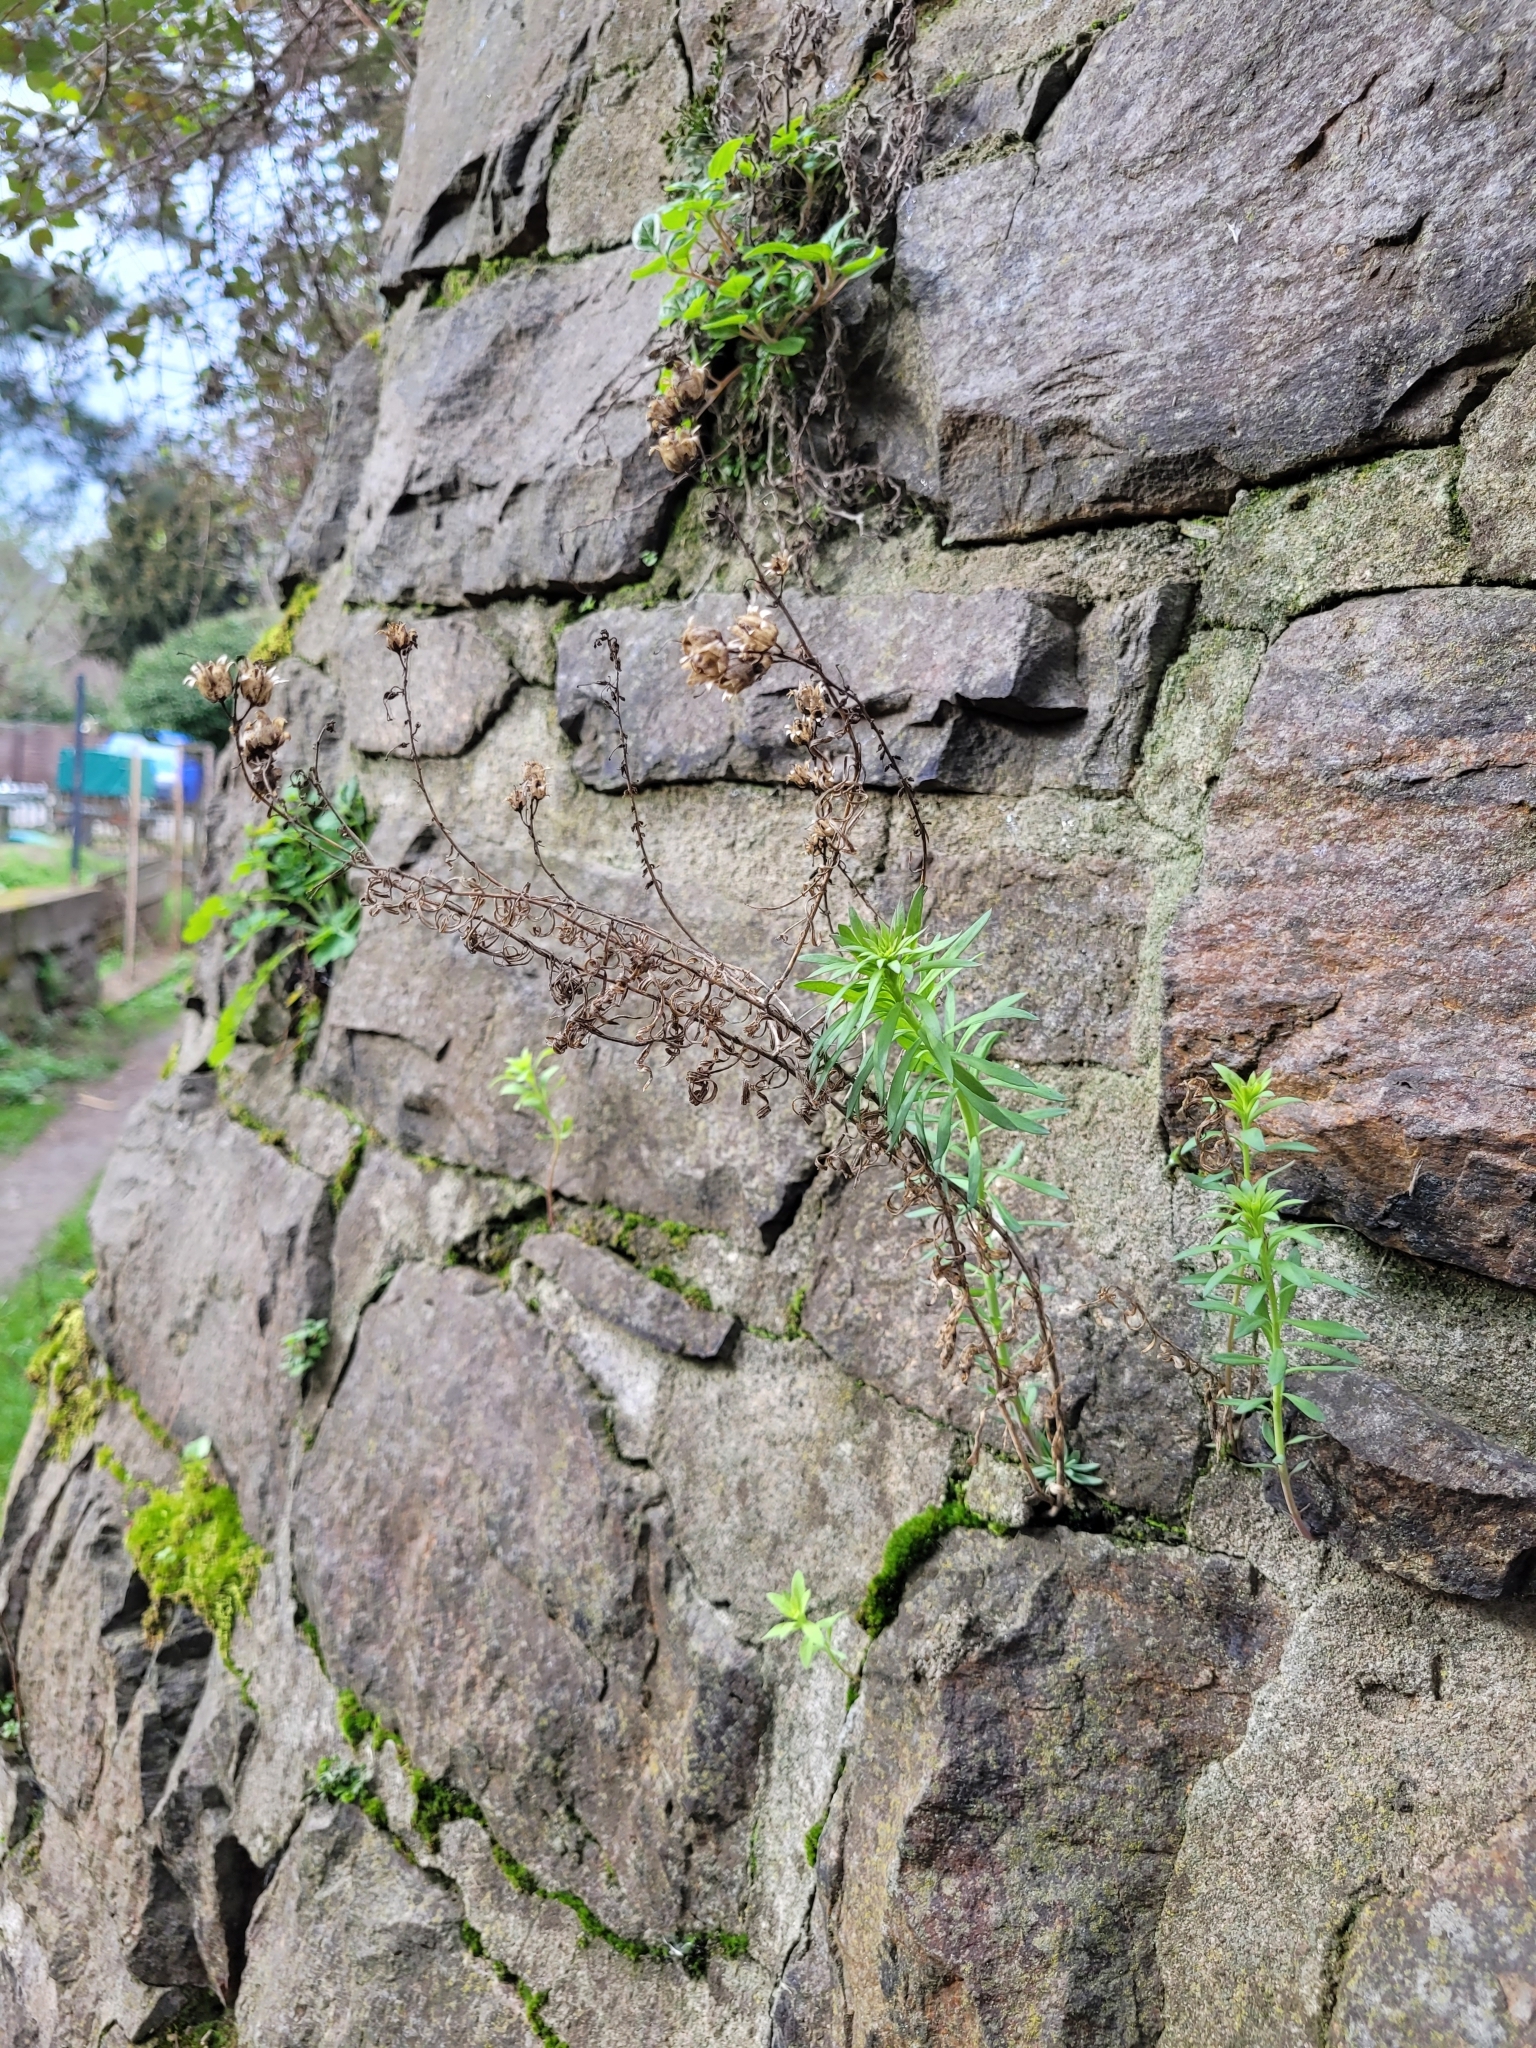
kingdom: Plantae
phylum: Tracheophyta
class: Magnoliopsida
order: Asterales
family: Asteraceae
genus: Senecio
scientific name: Senecio inaequidens
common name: Narrow-leaved ragwort
